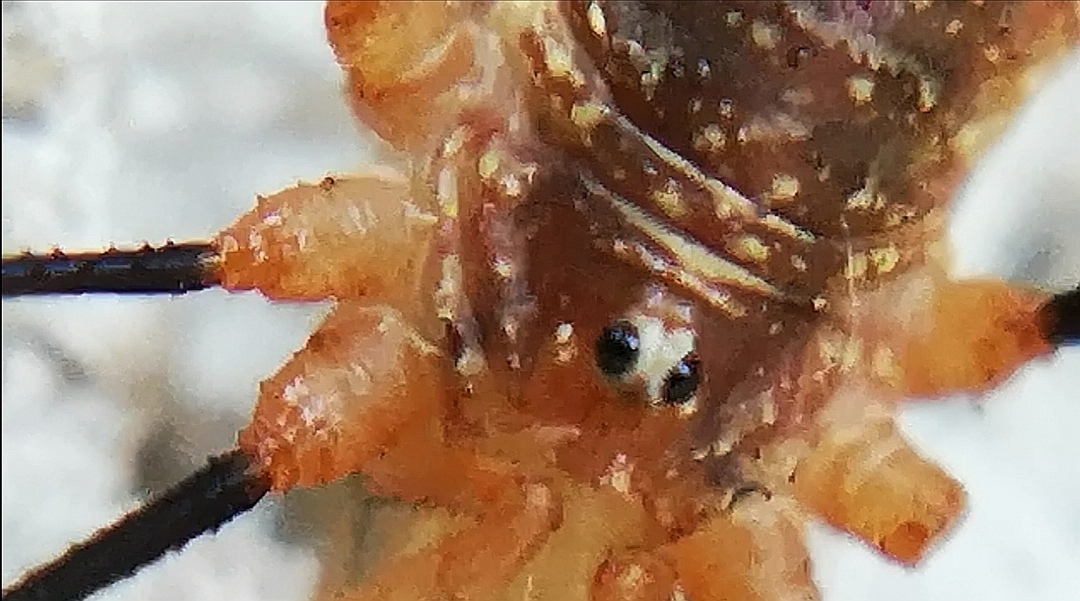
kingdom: Animalia
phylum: Arthropoda
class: Arachnida
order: Opiliones
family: Phalangiidae
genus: Opilio
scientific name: Opilio canestrinii
